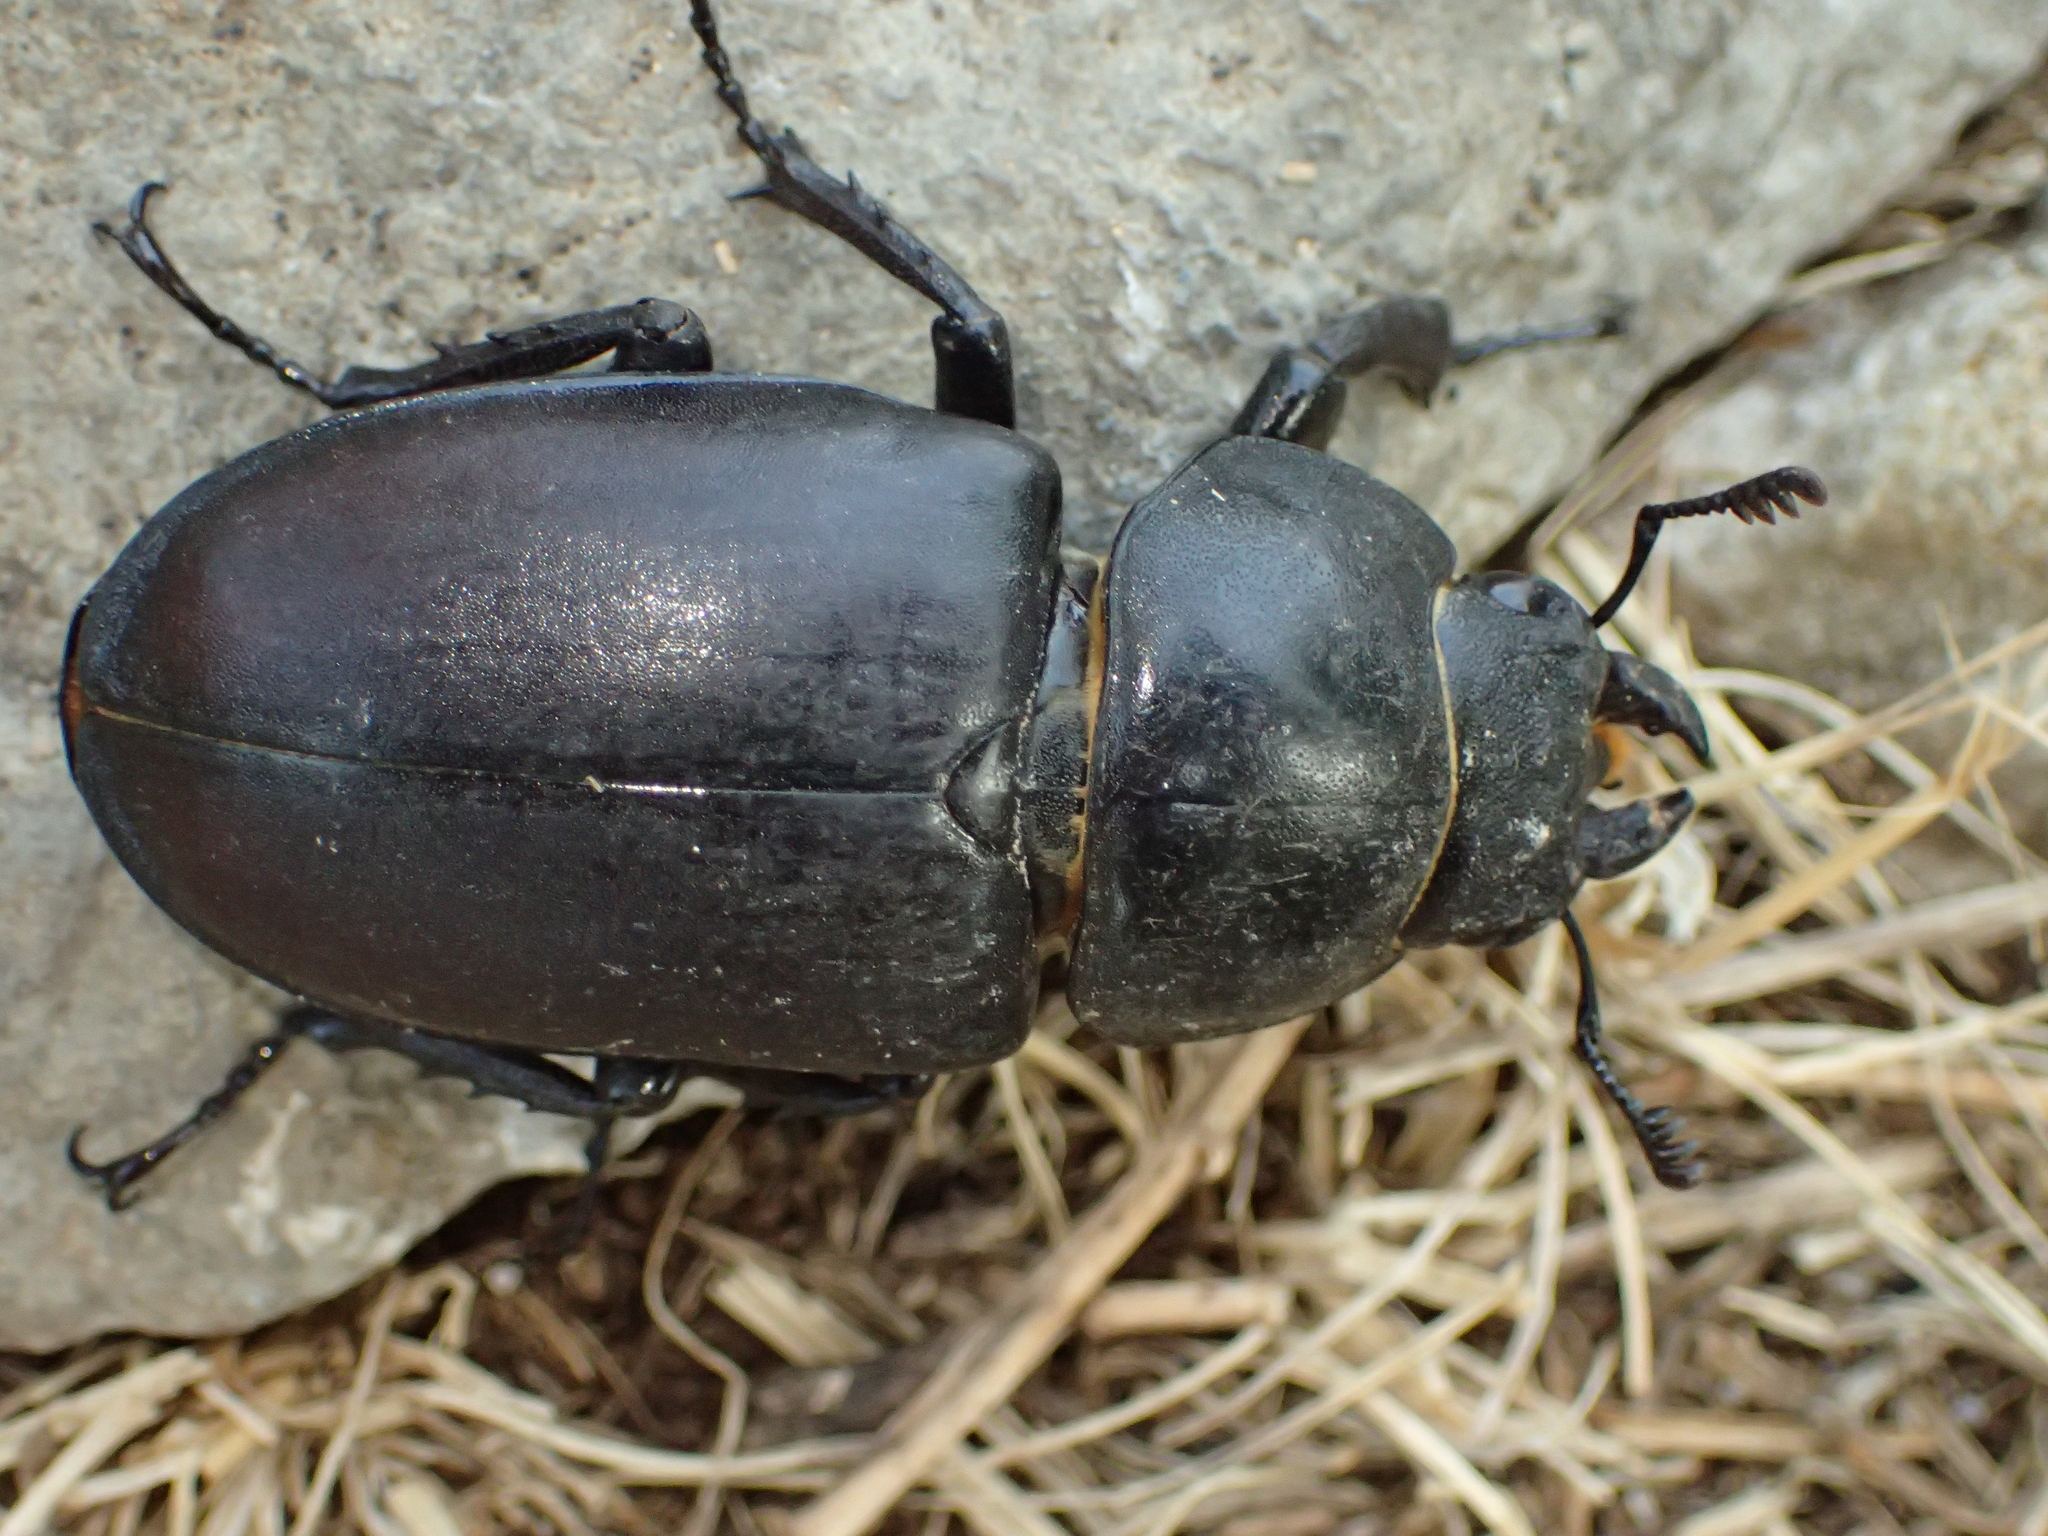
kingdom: Animalia
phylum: Arthropoda
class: Insecta
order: Coleoptera
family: Lucanidae
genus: Lucanus
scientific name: Lucanus cervus
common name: Stag beetle
